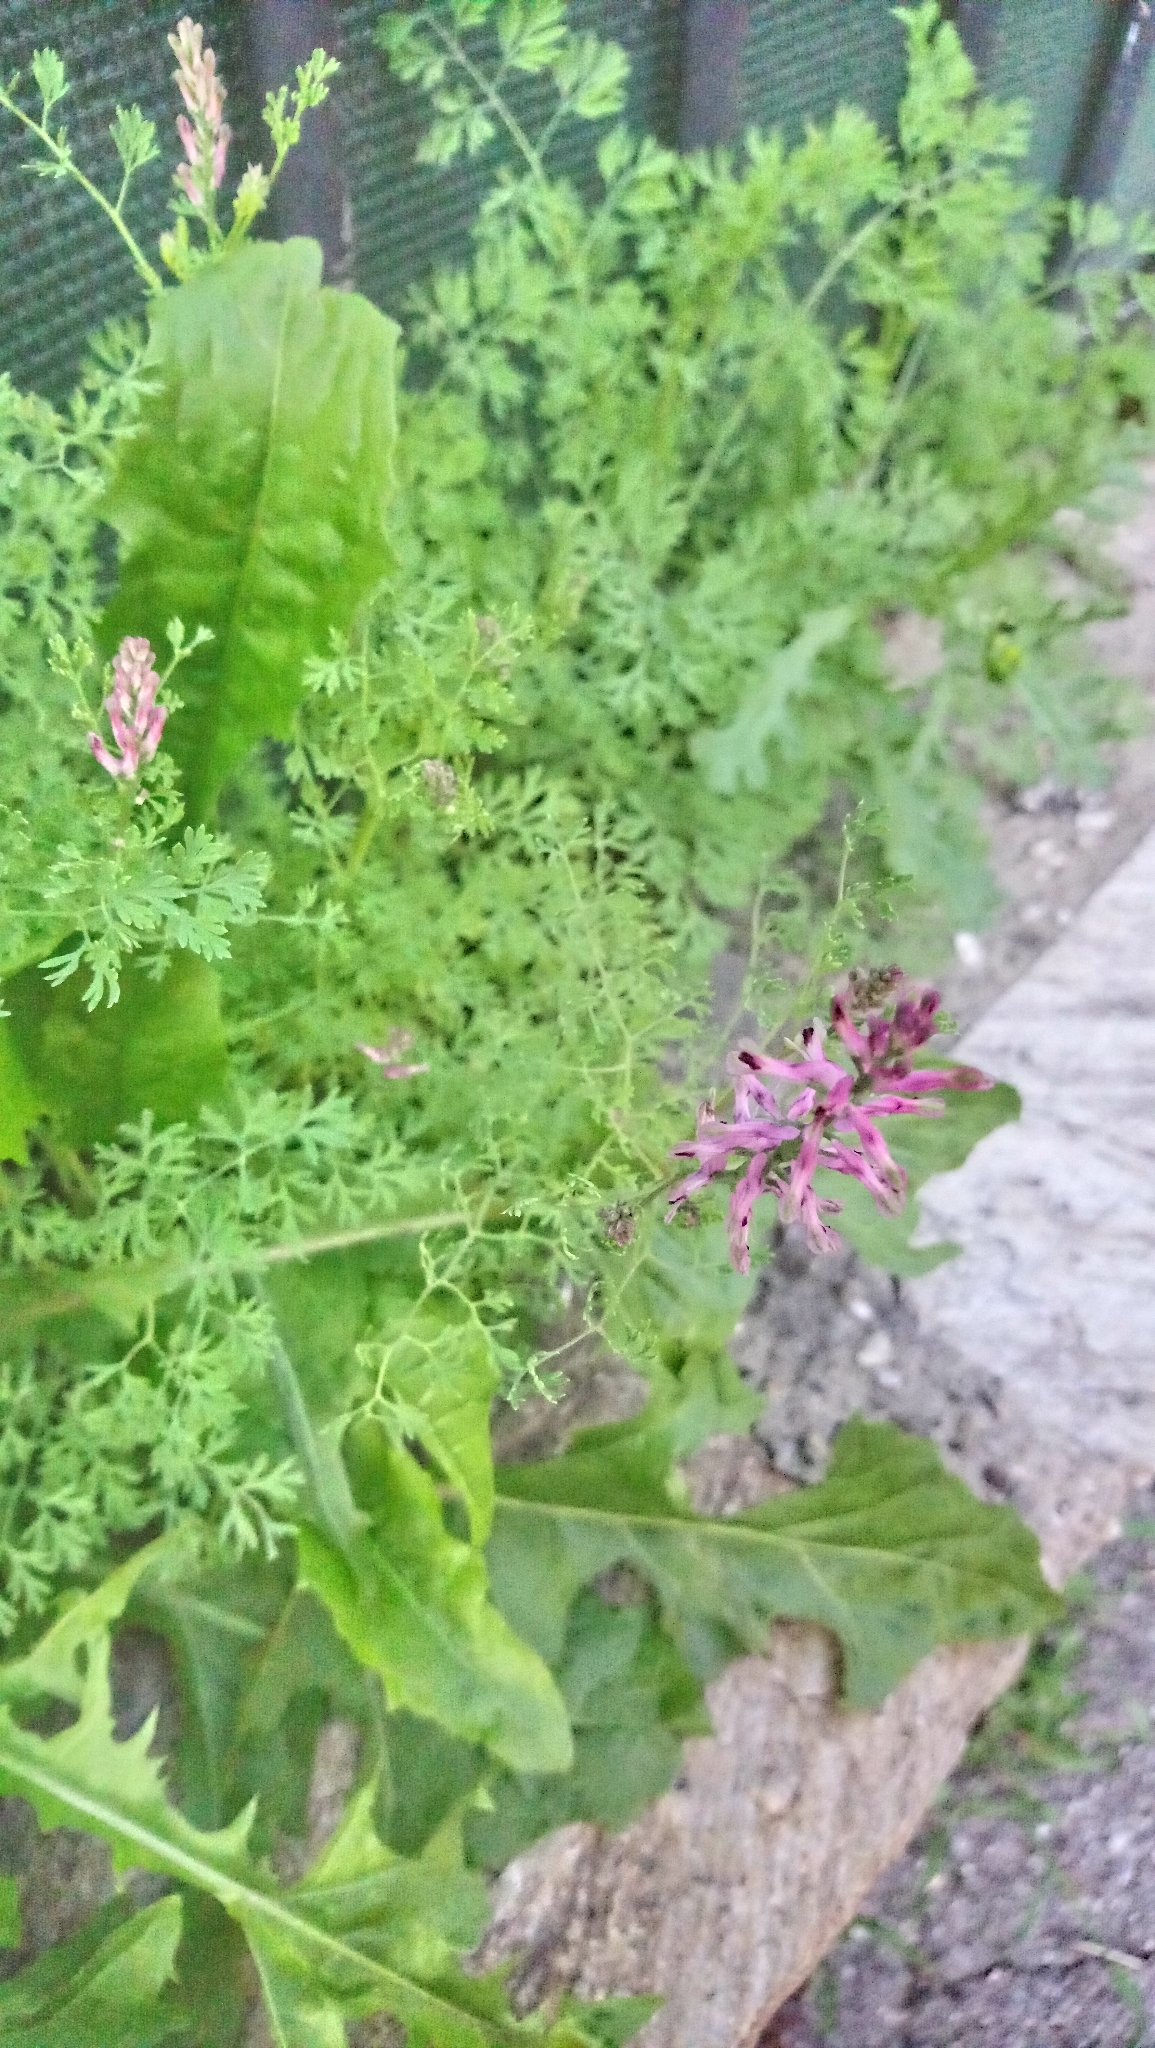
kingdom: Plantae
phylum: Tracheophyta
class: Magnoliopsida
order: Ranunculales
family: Papaveraceae
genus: Fumaria
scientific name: Fumaria officinalis
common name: Common fumitory
